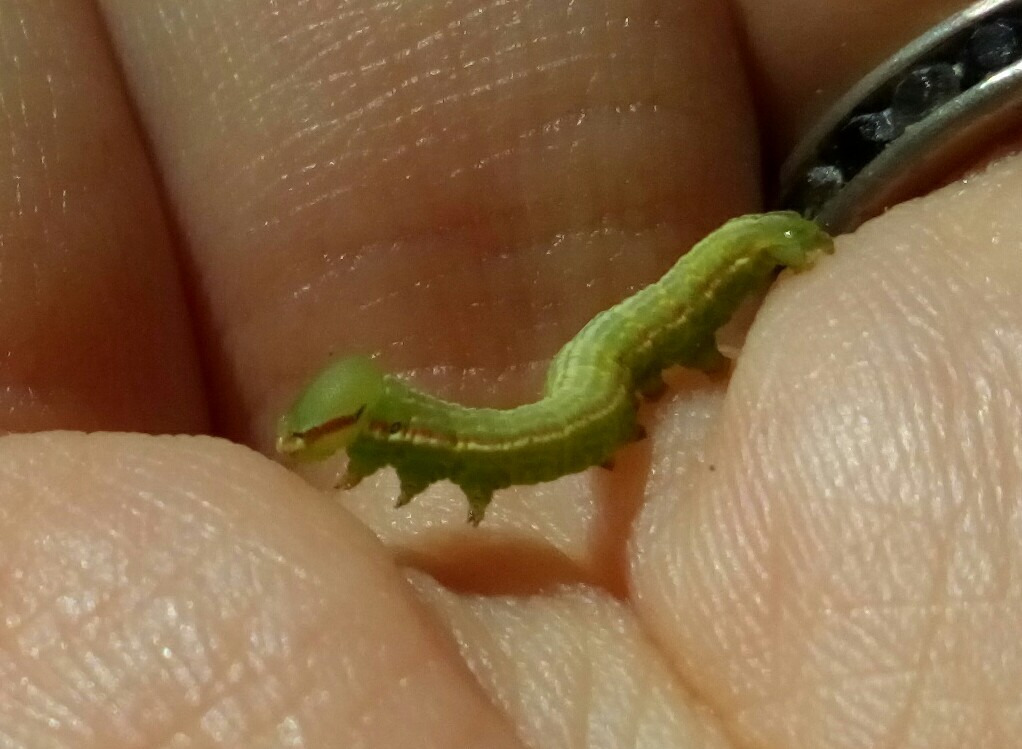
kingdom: Animalia
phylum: Arthropoda
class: Insecta
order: Lepidoptera
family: Notodontidae
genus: Peridea
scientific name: Peridea angulosa
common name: Angulose prominent
